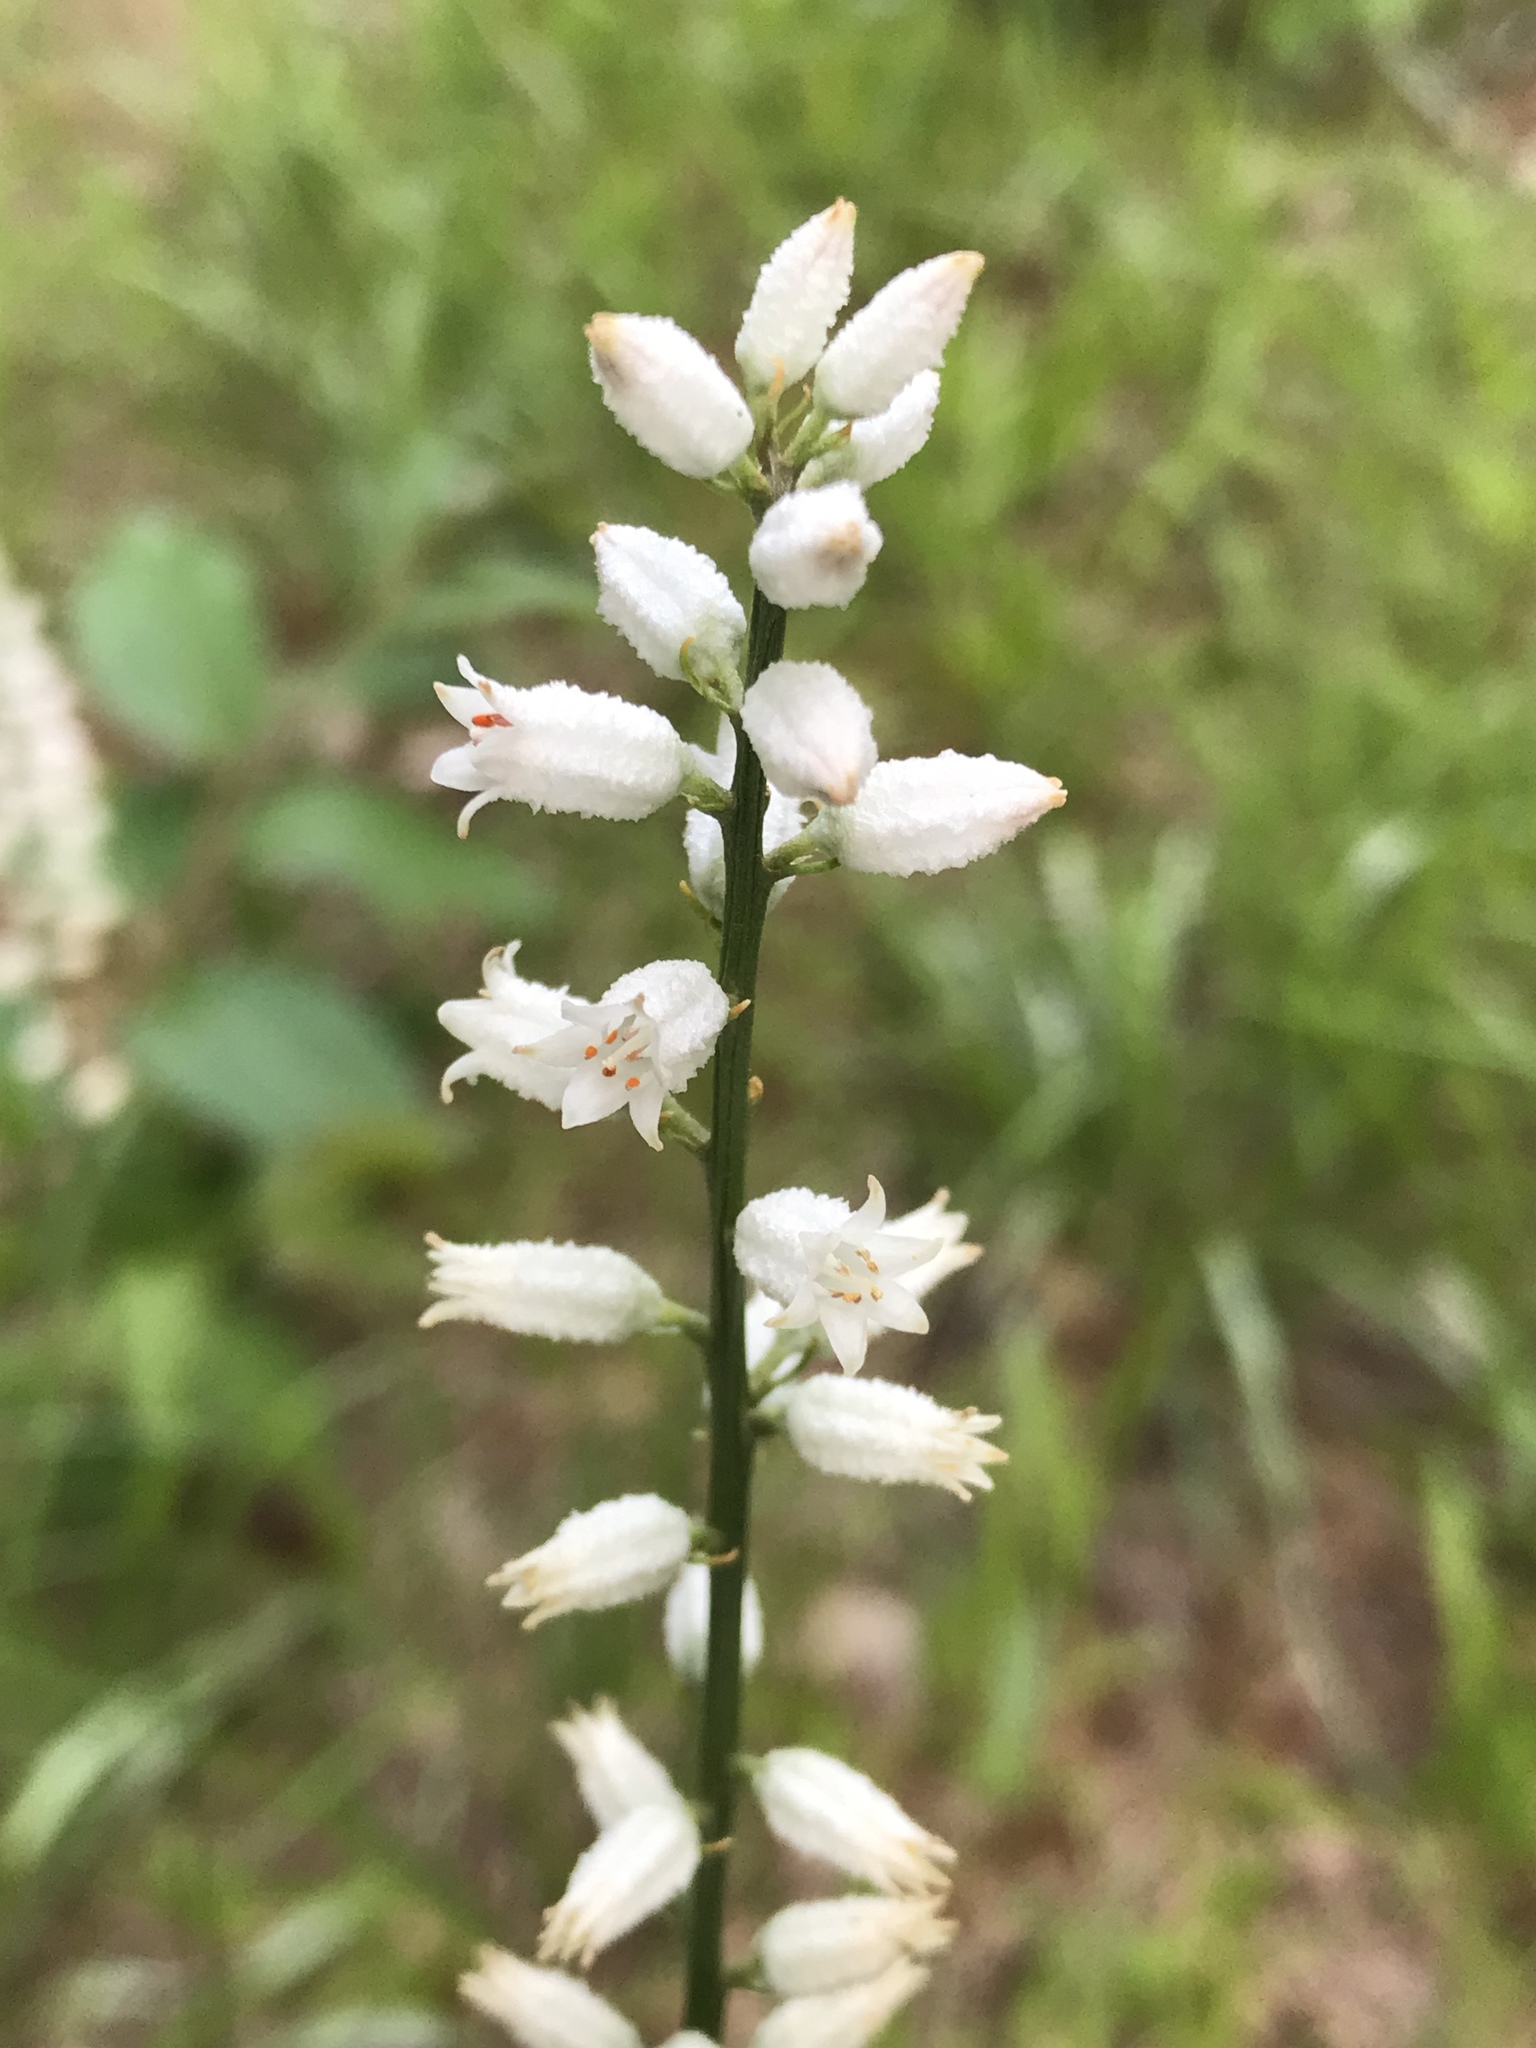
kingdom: Plantae
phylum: Tracheophyta
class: Liliopsida
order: Dioscoreales
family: Nartheciaceae
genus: Aletris
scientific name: Aletris farinosa
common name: Colicroot
